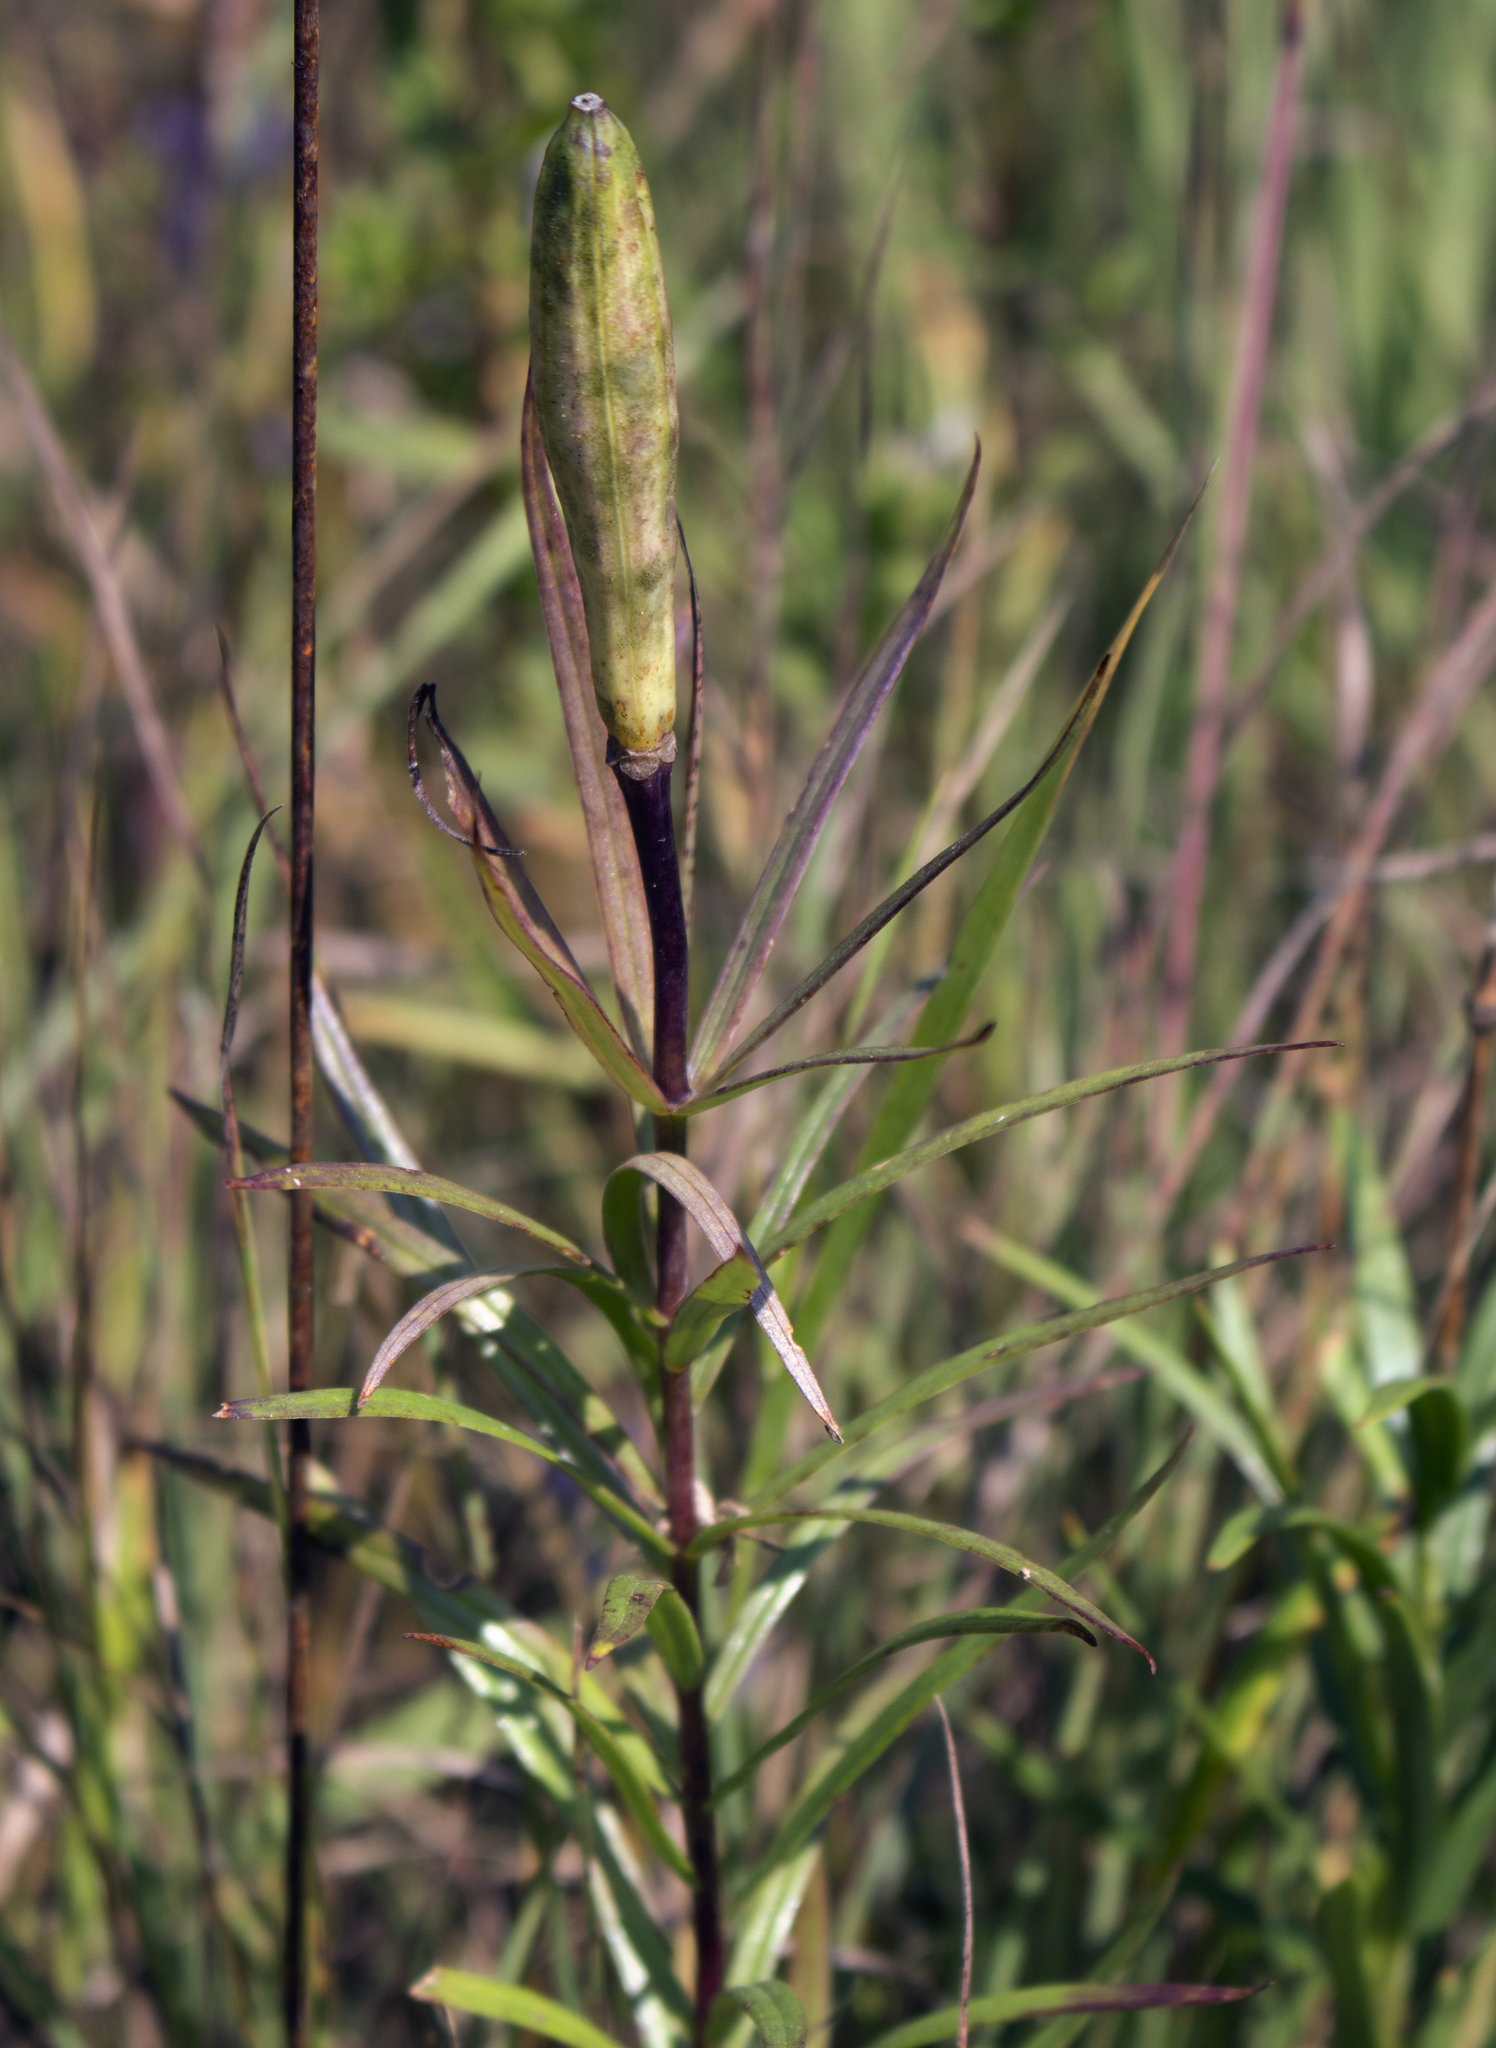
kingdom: Plantae
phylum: Tracheophyta
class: Liliopsida
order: Liliales
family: Liliaceae
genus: Lilium
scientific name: Lilium philadelphicum
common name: Red lily
